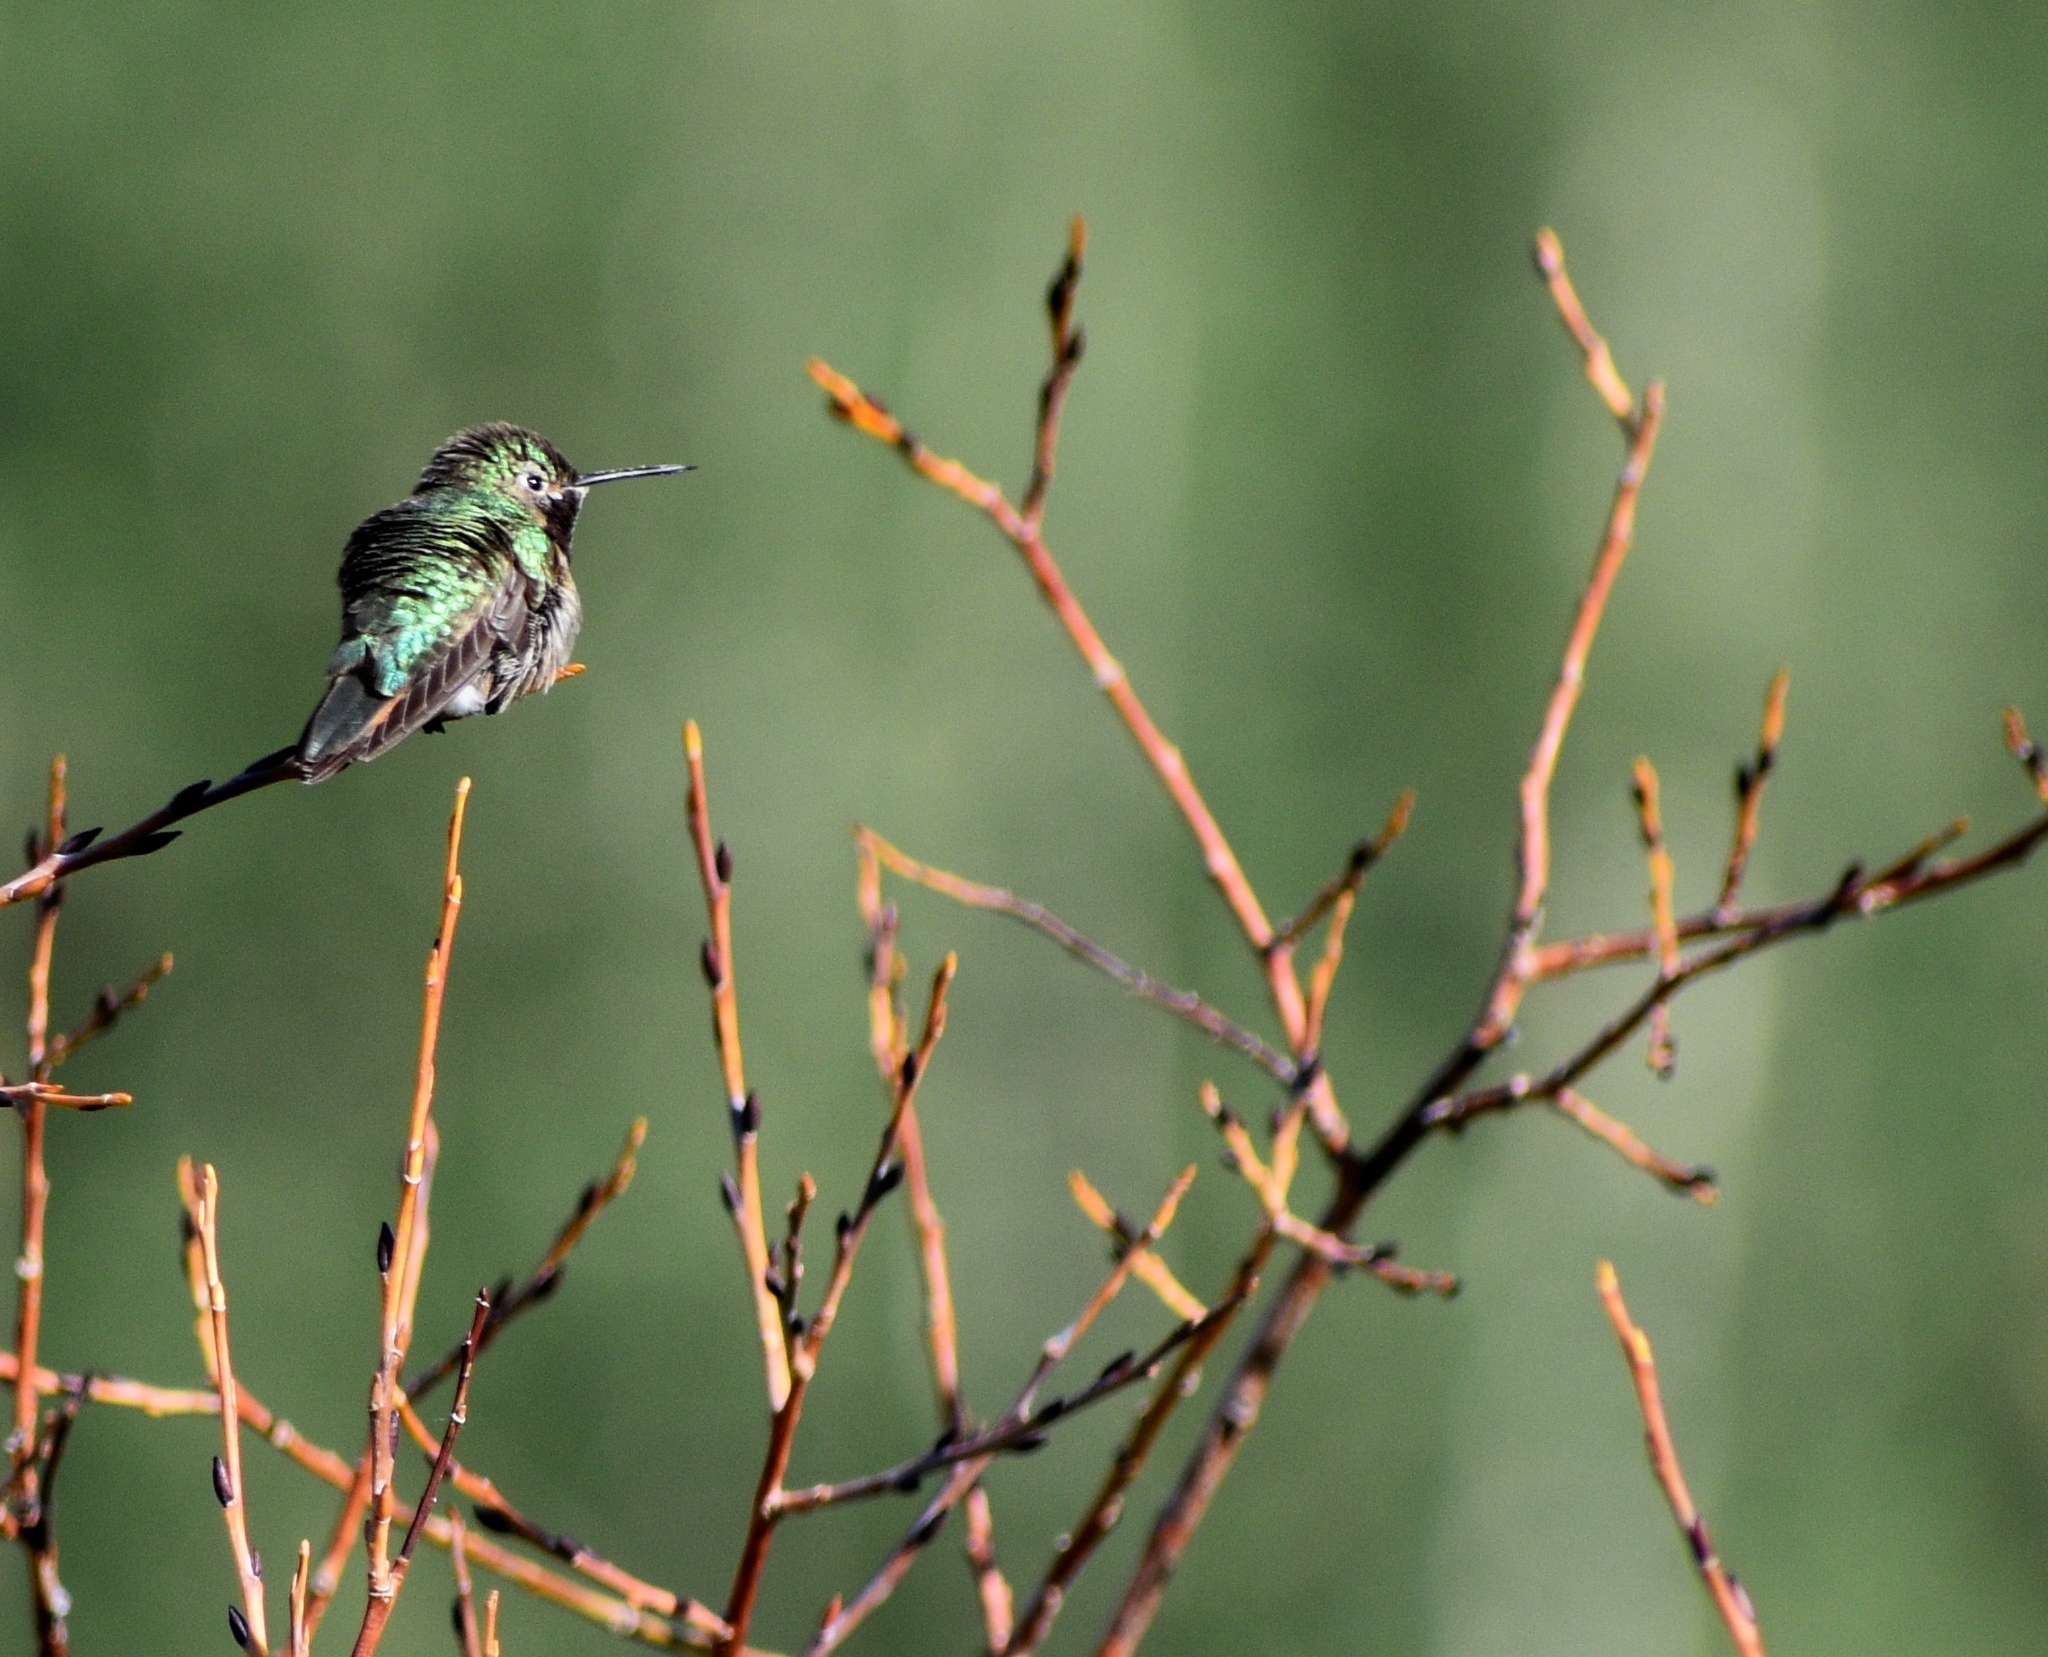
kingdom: Animalia
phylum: Chordata
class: Aves
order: Apodiformes
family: Trochilidae
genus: Selasphorus
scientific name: Selasphorus platycercus
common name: Broad-tailed hummingbird
